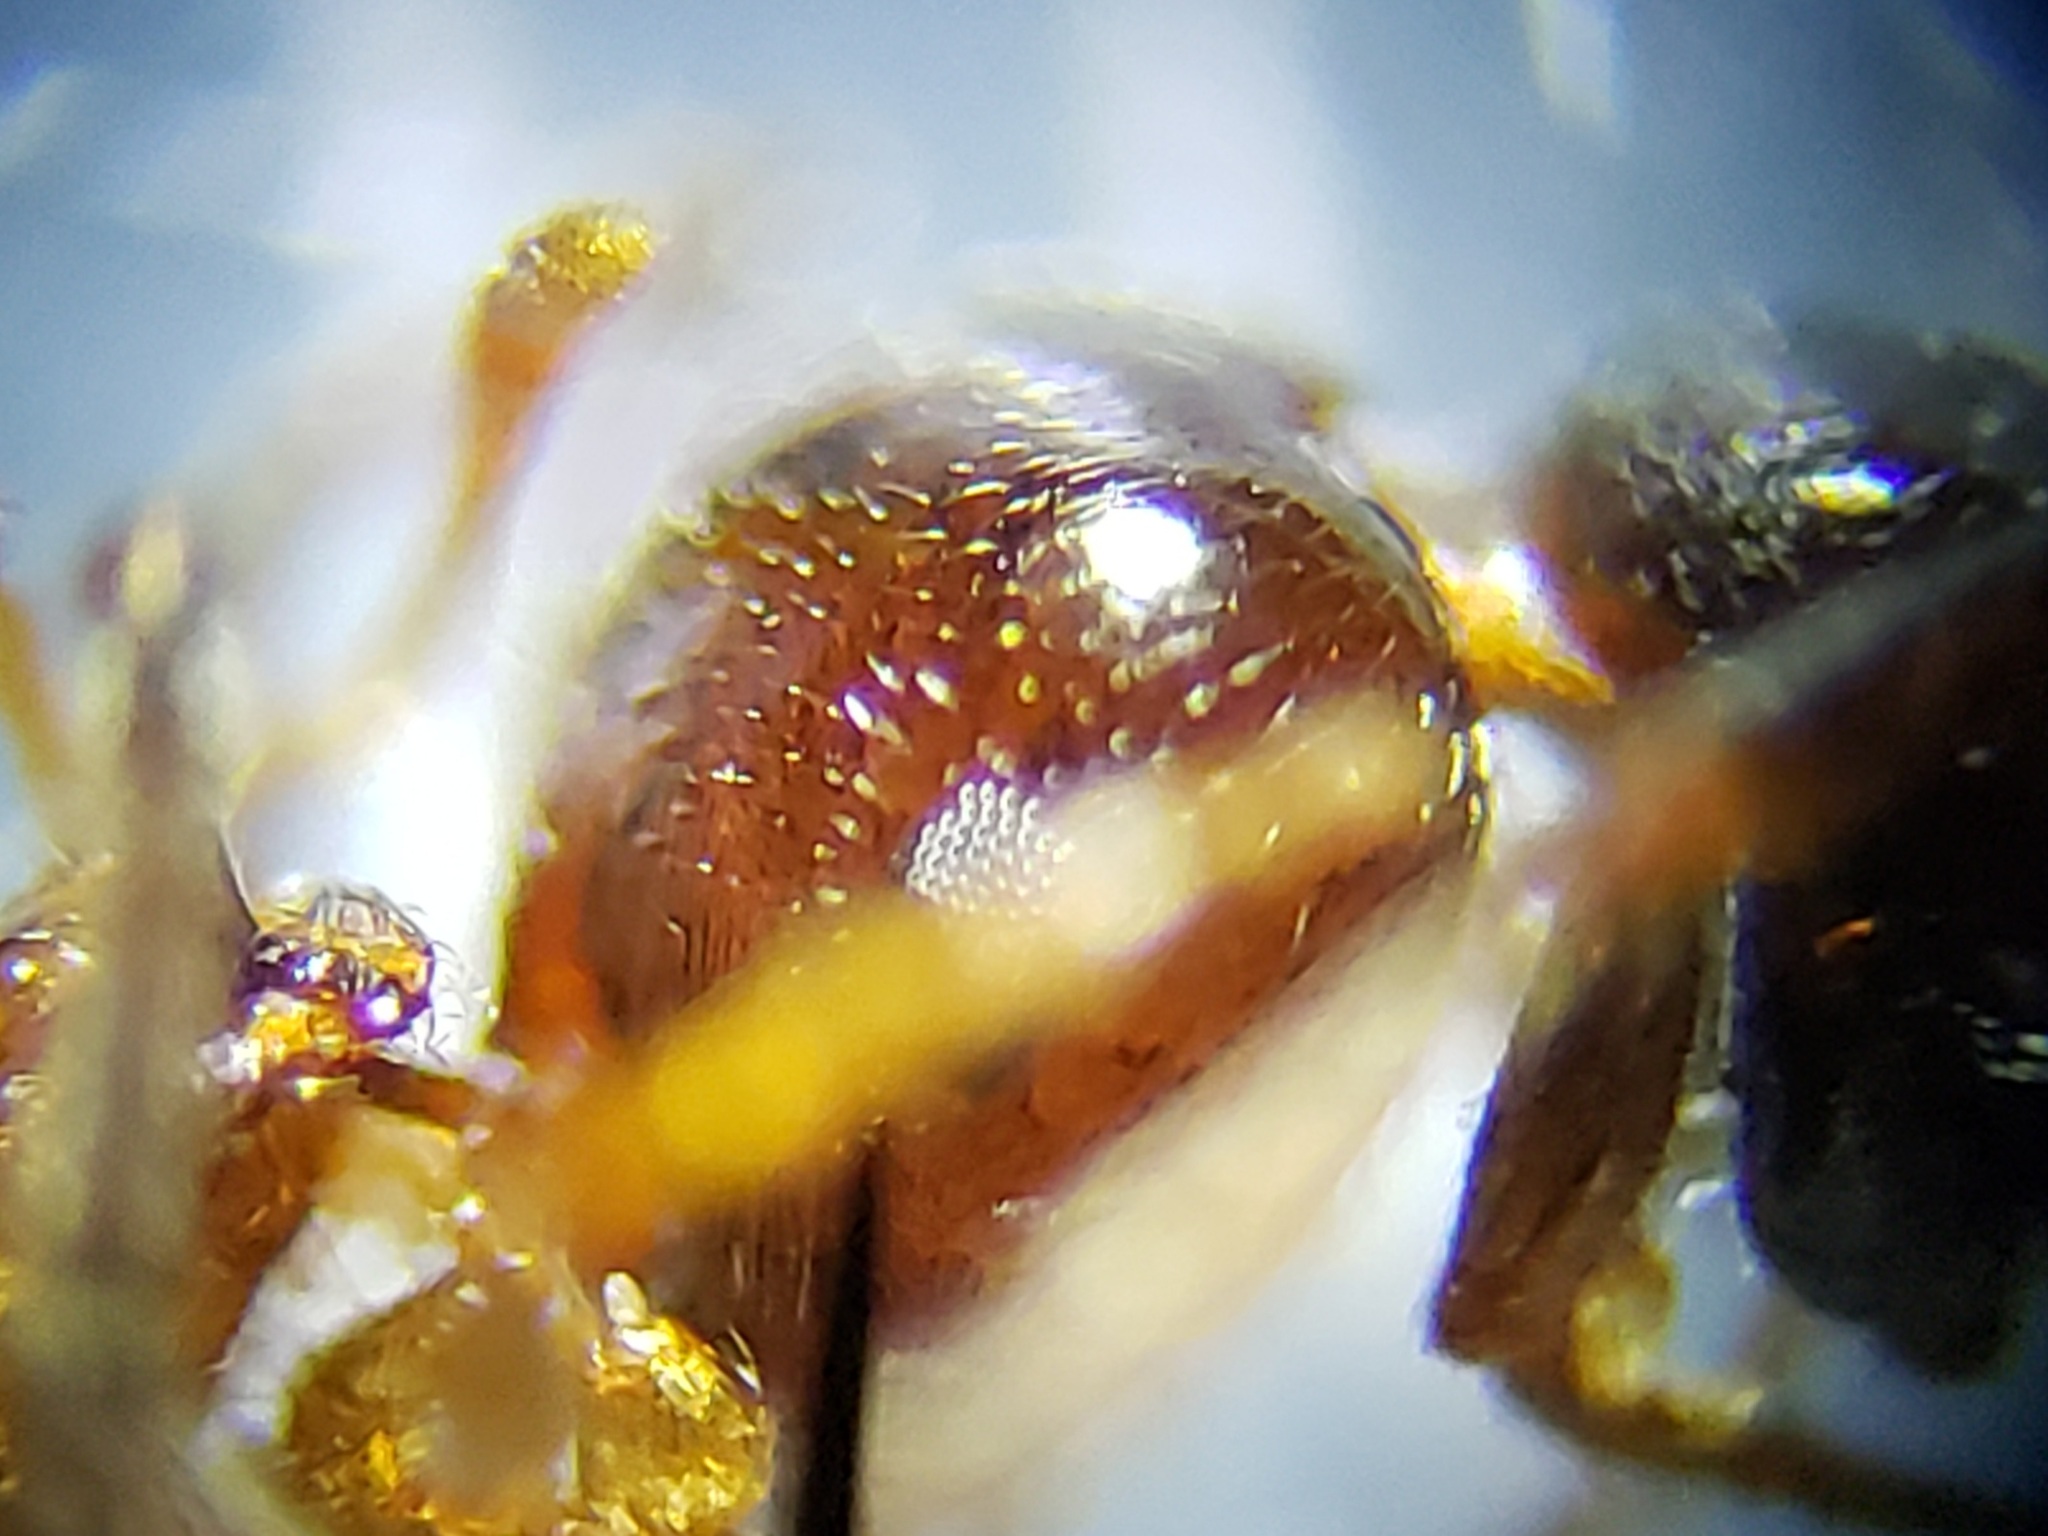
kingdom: Animalia
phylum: Arthropoda
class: Insecta
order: Hymenoptera
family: Formicidae
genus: Crematogaster
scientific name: Crematogaster
